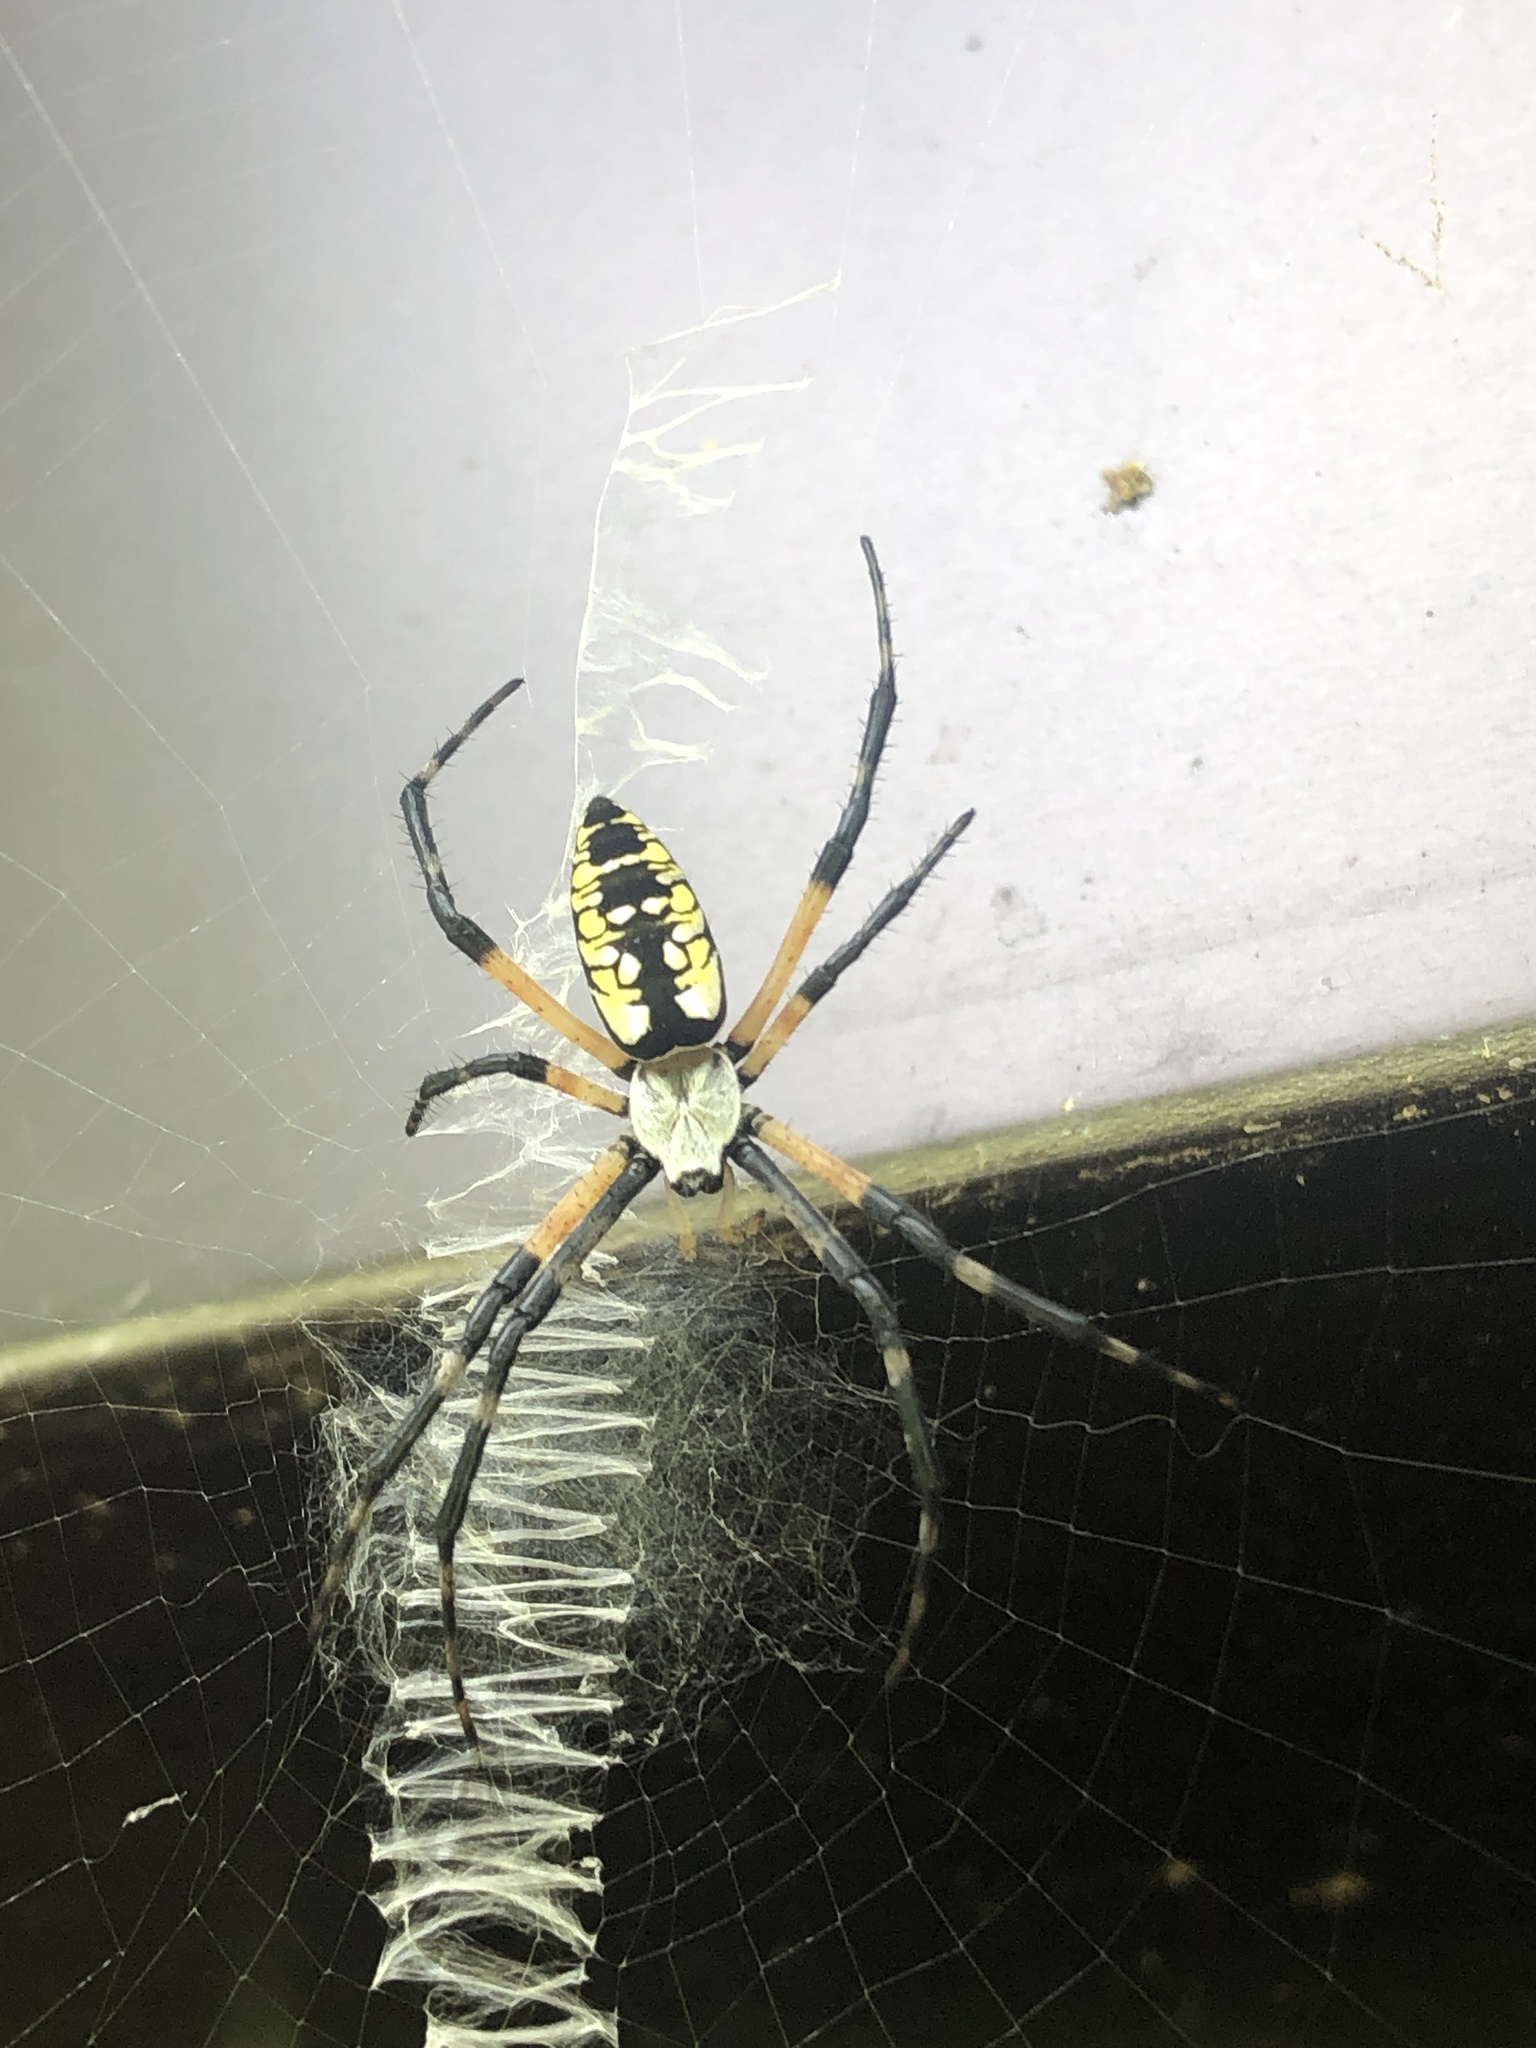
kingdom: Animalia
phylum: Arthropoda
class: Arachnida
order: Araneae
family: Araneidae
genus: Argiope
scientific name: Argiope aurantia
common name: Orb weavers
